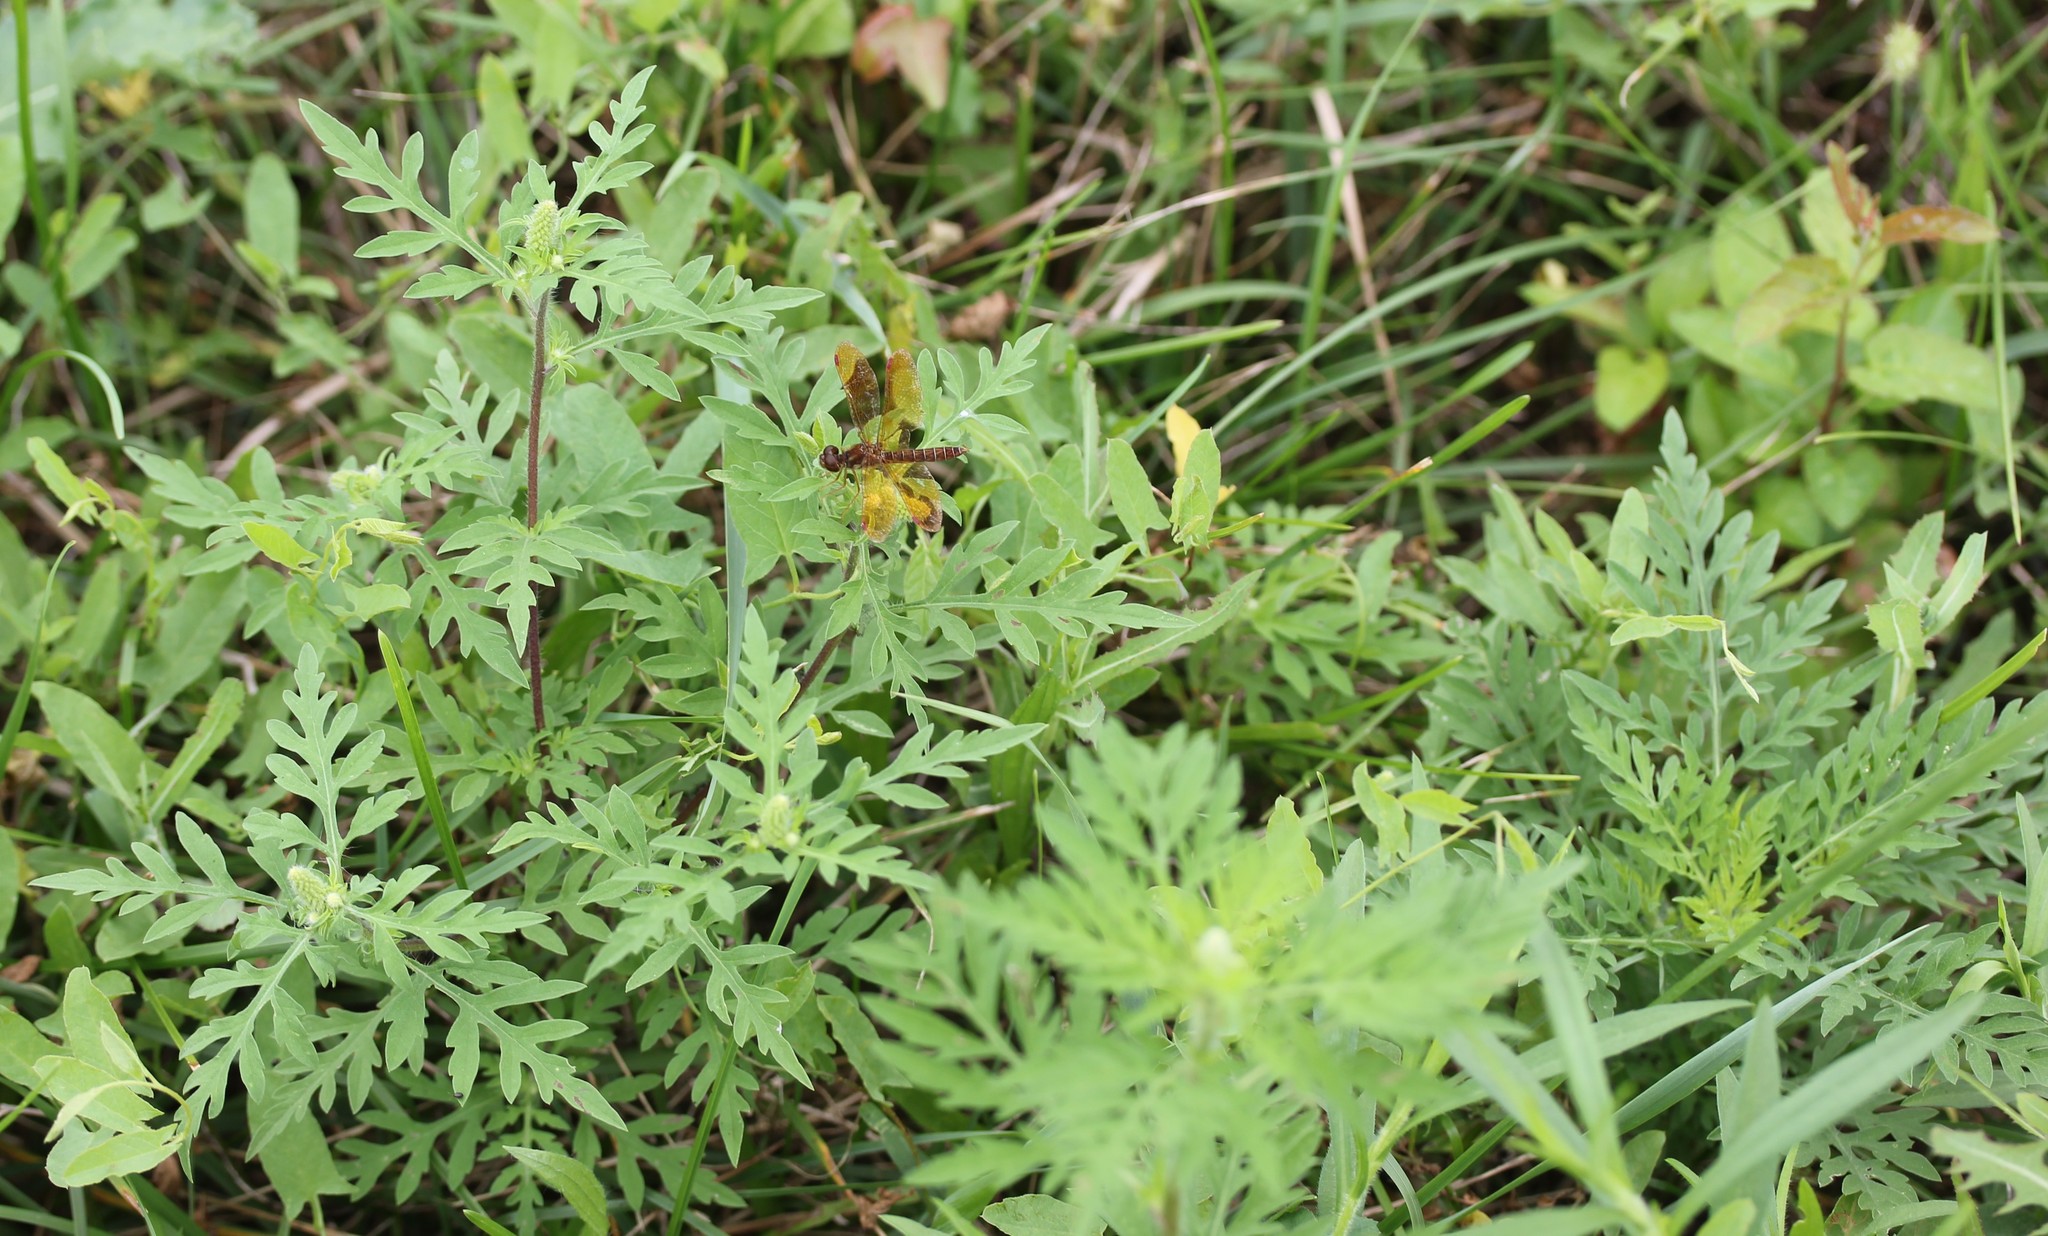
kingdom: Plantae
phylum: Tracheophyta
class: Magnoliopsida
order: Asterales
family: Asteraceae
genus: Ambrosia
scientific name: Ambrosia artemisiifolia
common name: Annual ragweed
